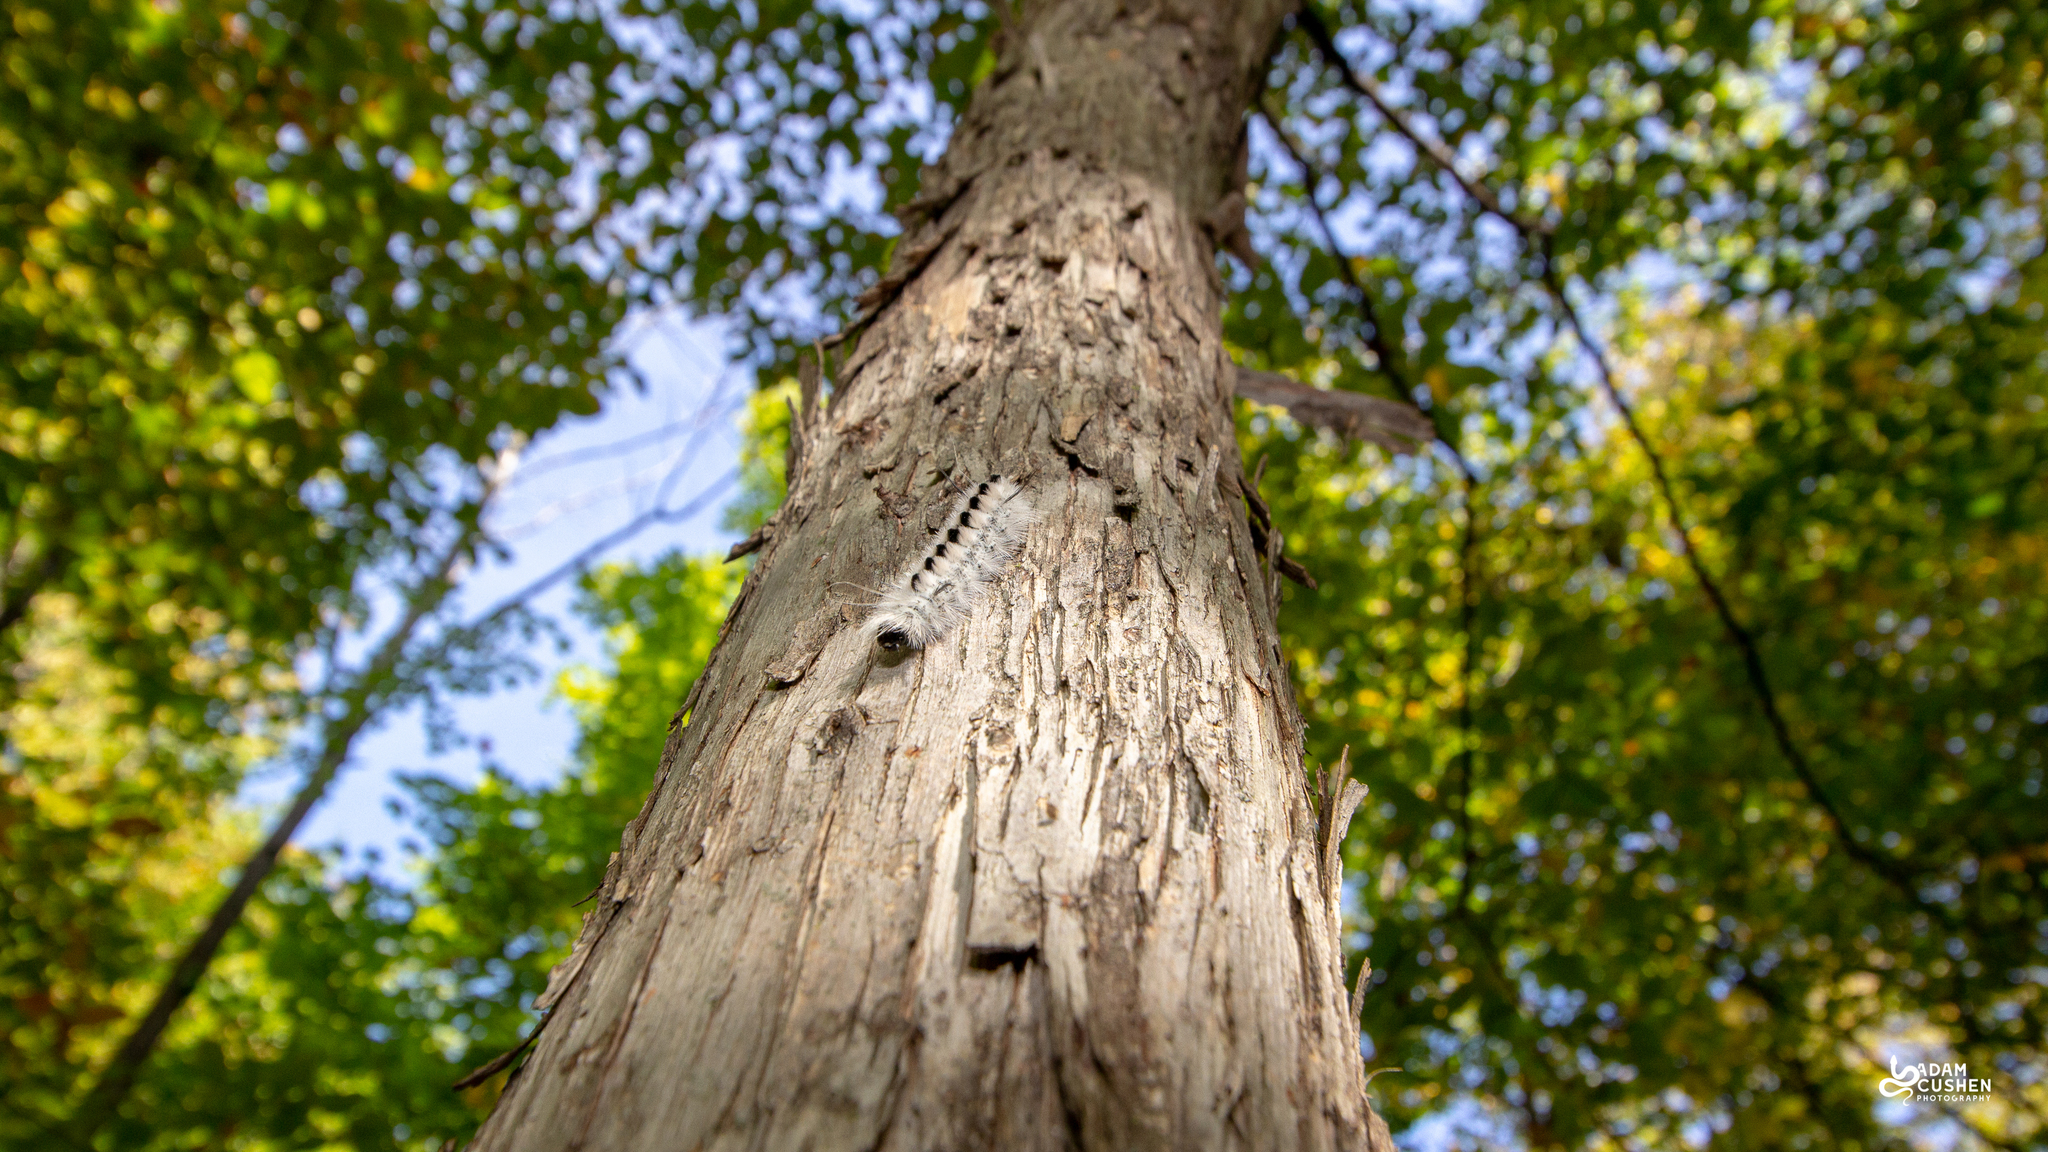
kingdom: Animalia
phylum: Arthropoda
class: Insecta
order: Lepidoptera
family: Erebidae
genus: Lophocampa
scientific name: Lophocampa caryae
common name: Hickory tussock moth
